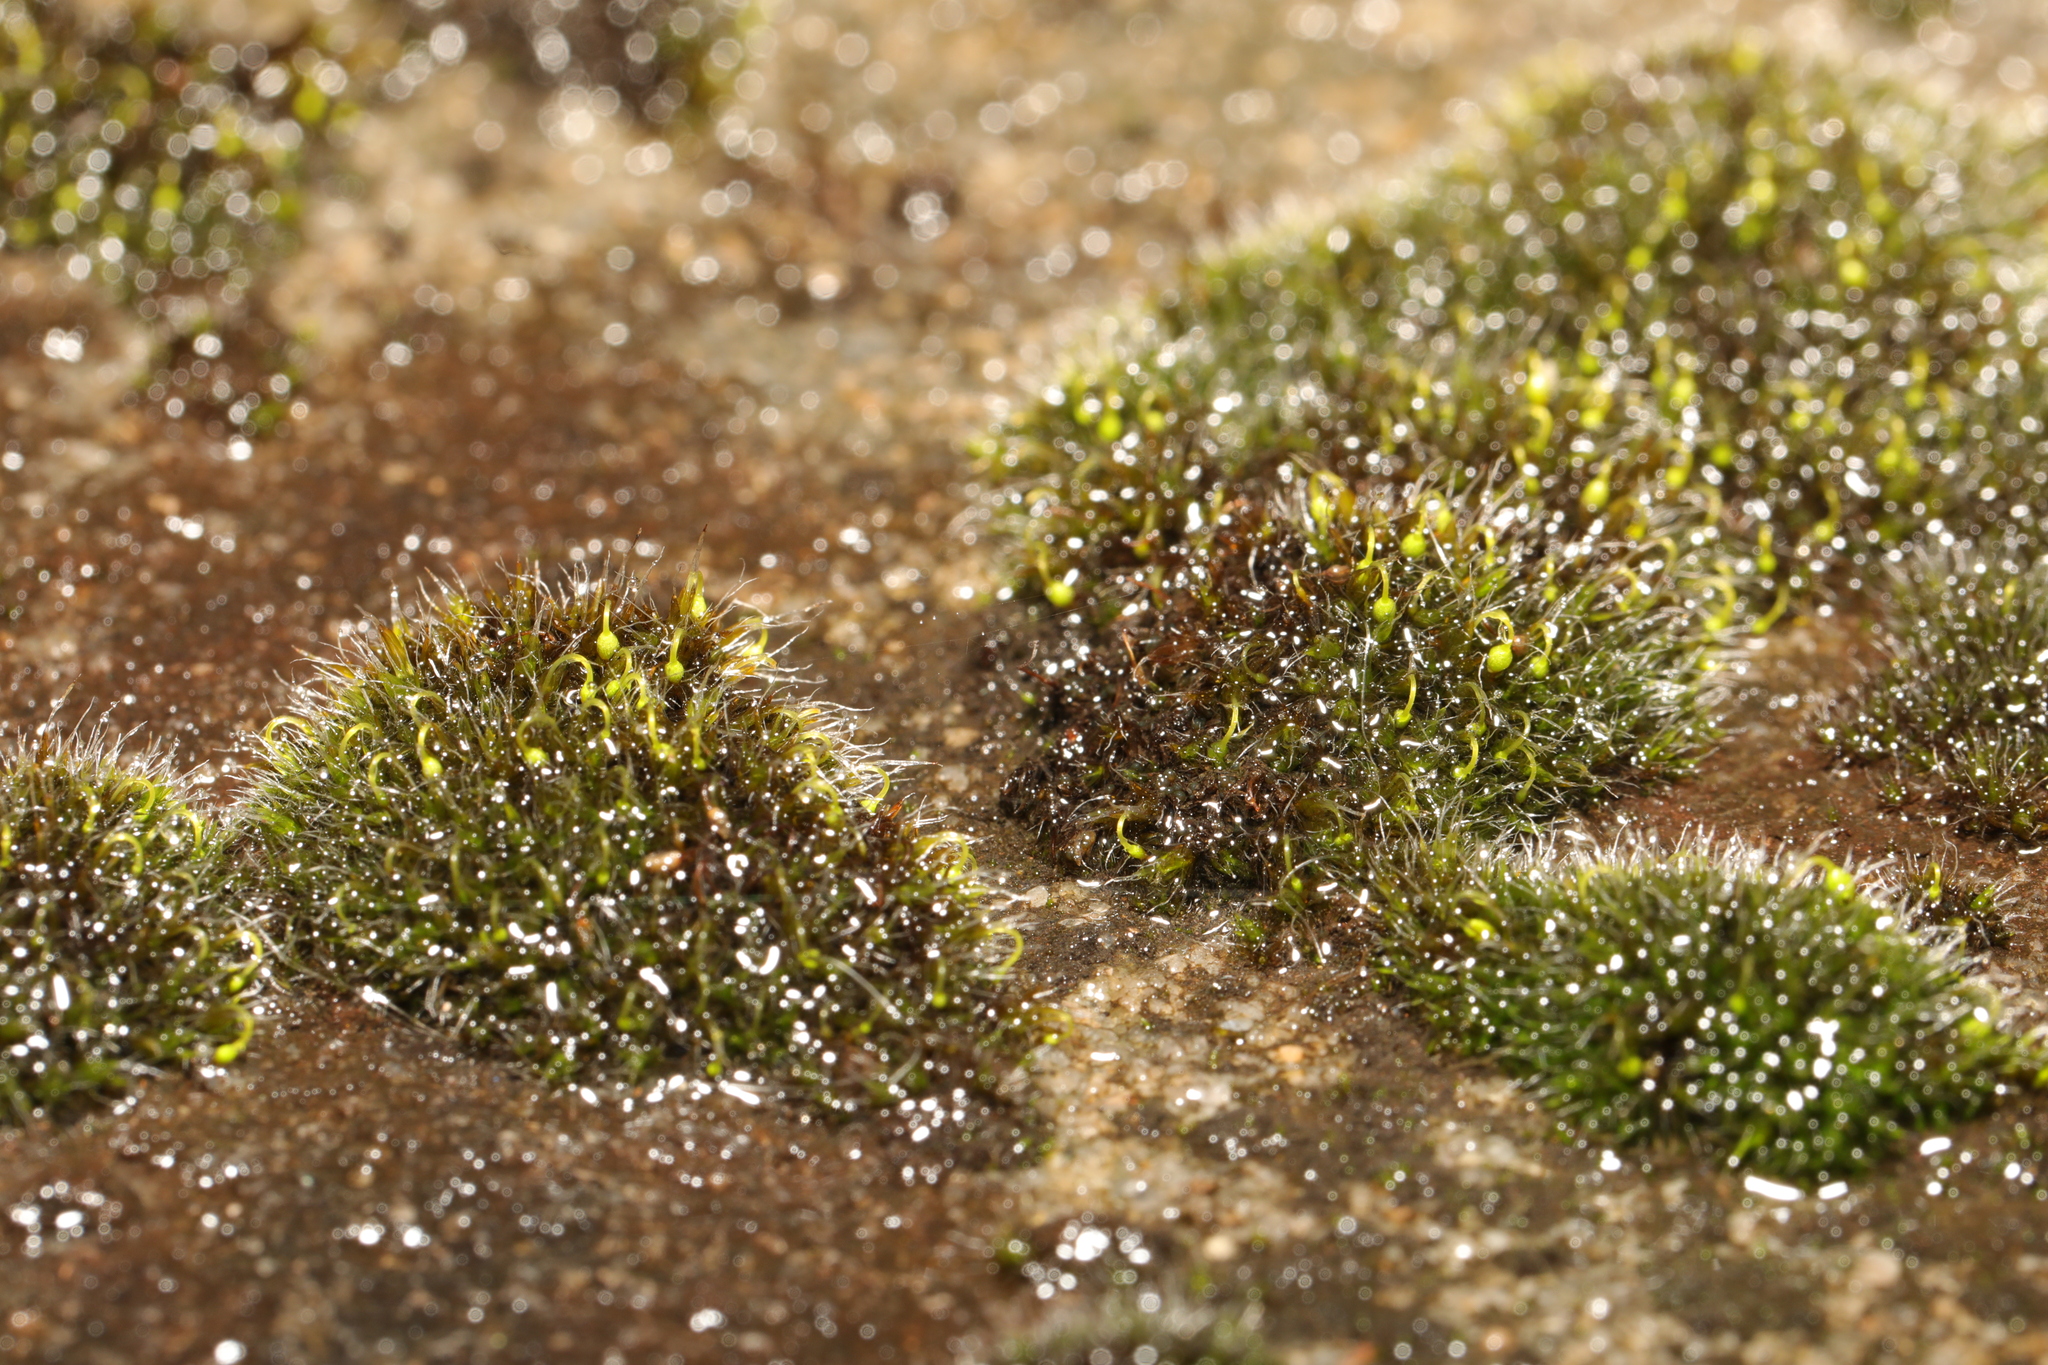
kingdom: Plantae
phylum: Bryophyta
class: Bryopsida
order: Grimmiales
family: Grimmiaceae
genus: Grimmia
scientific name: Grimmia pulvinata
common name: Grey-cushioned grimmia
